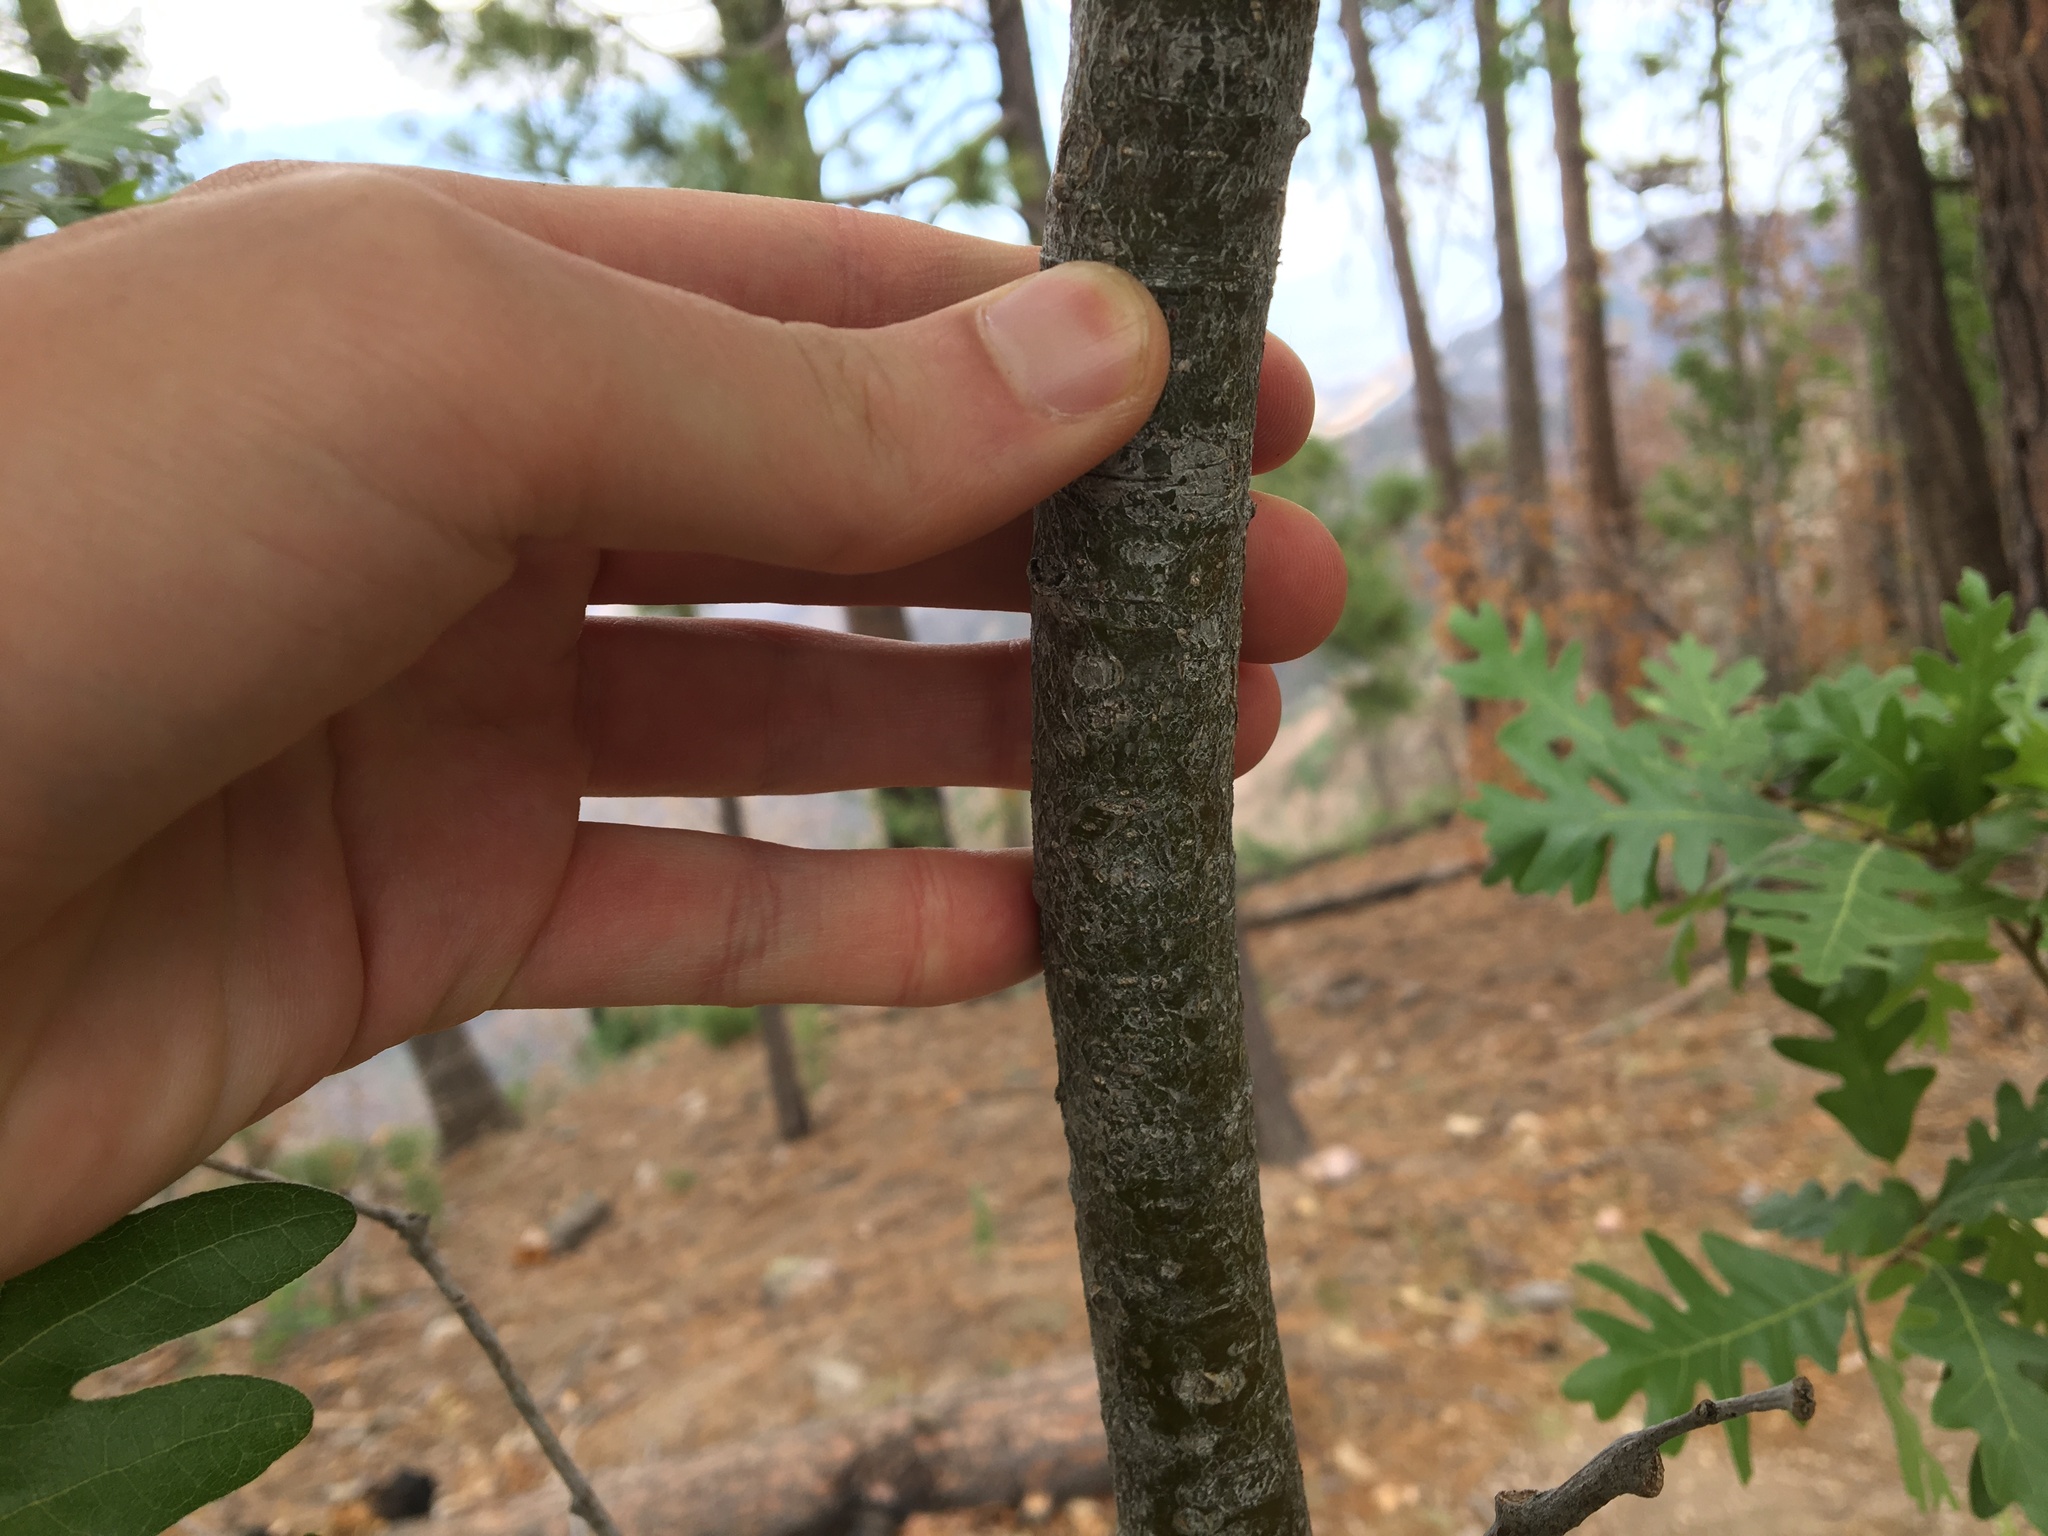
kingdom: Plantae
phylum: Tracheophyta
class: Magnoliopsida
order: Fagales
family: Fagaceae
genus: Quercus
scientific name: Quercus gambelii
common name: Gambel oak
